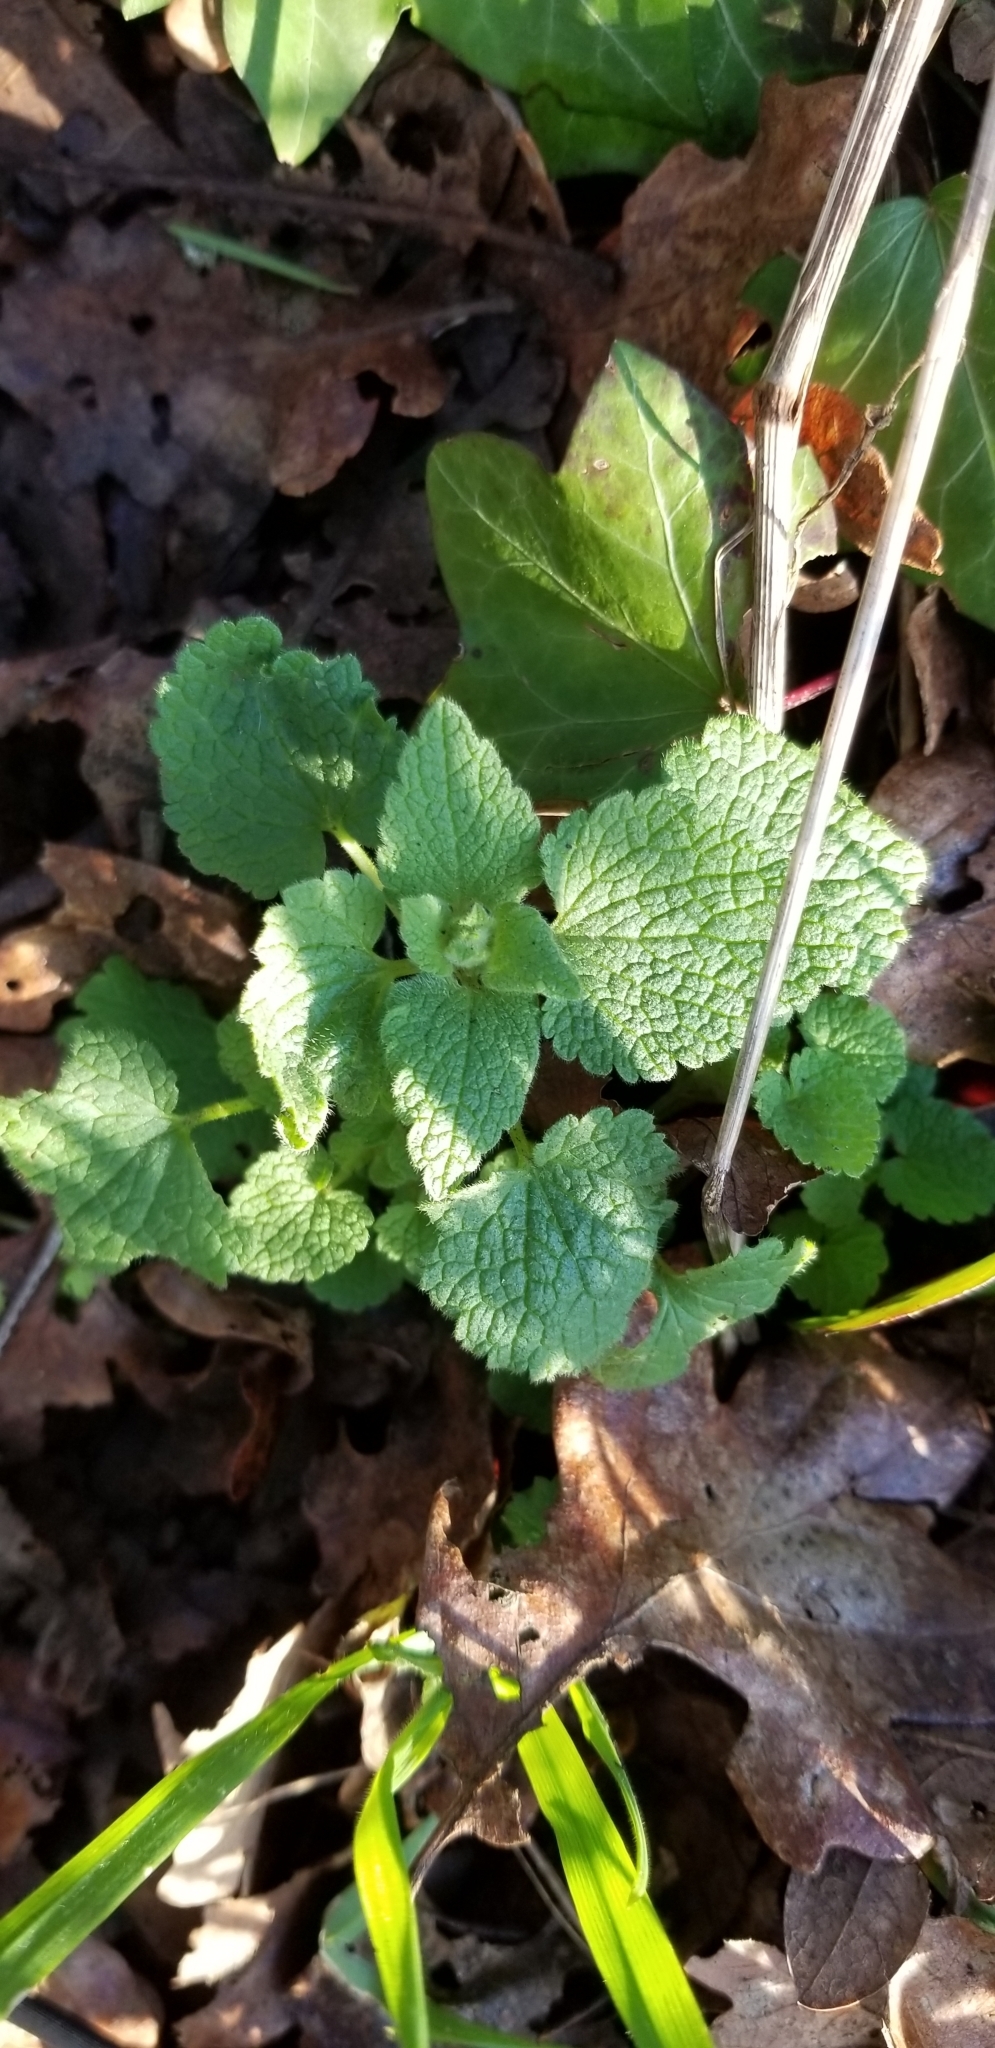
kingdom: Plantae
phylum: Tracheophyta
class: Magnoliopsida
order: Lamiales
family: Lamiaceae
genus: Lamium
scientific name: Lamium purpureum
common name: Red dead-nettle
